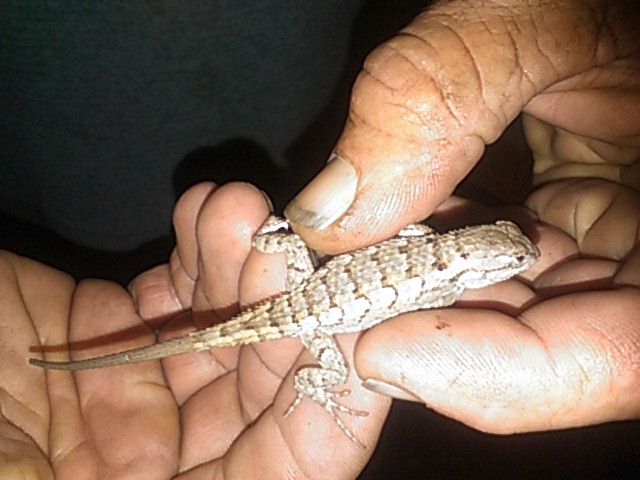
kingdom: Animalia
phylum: Chordata
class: Squamata
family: Phrynosomatidae
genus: Sceloporus
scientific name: Sceloporus olivaceus
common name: Texas spiny lizard
